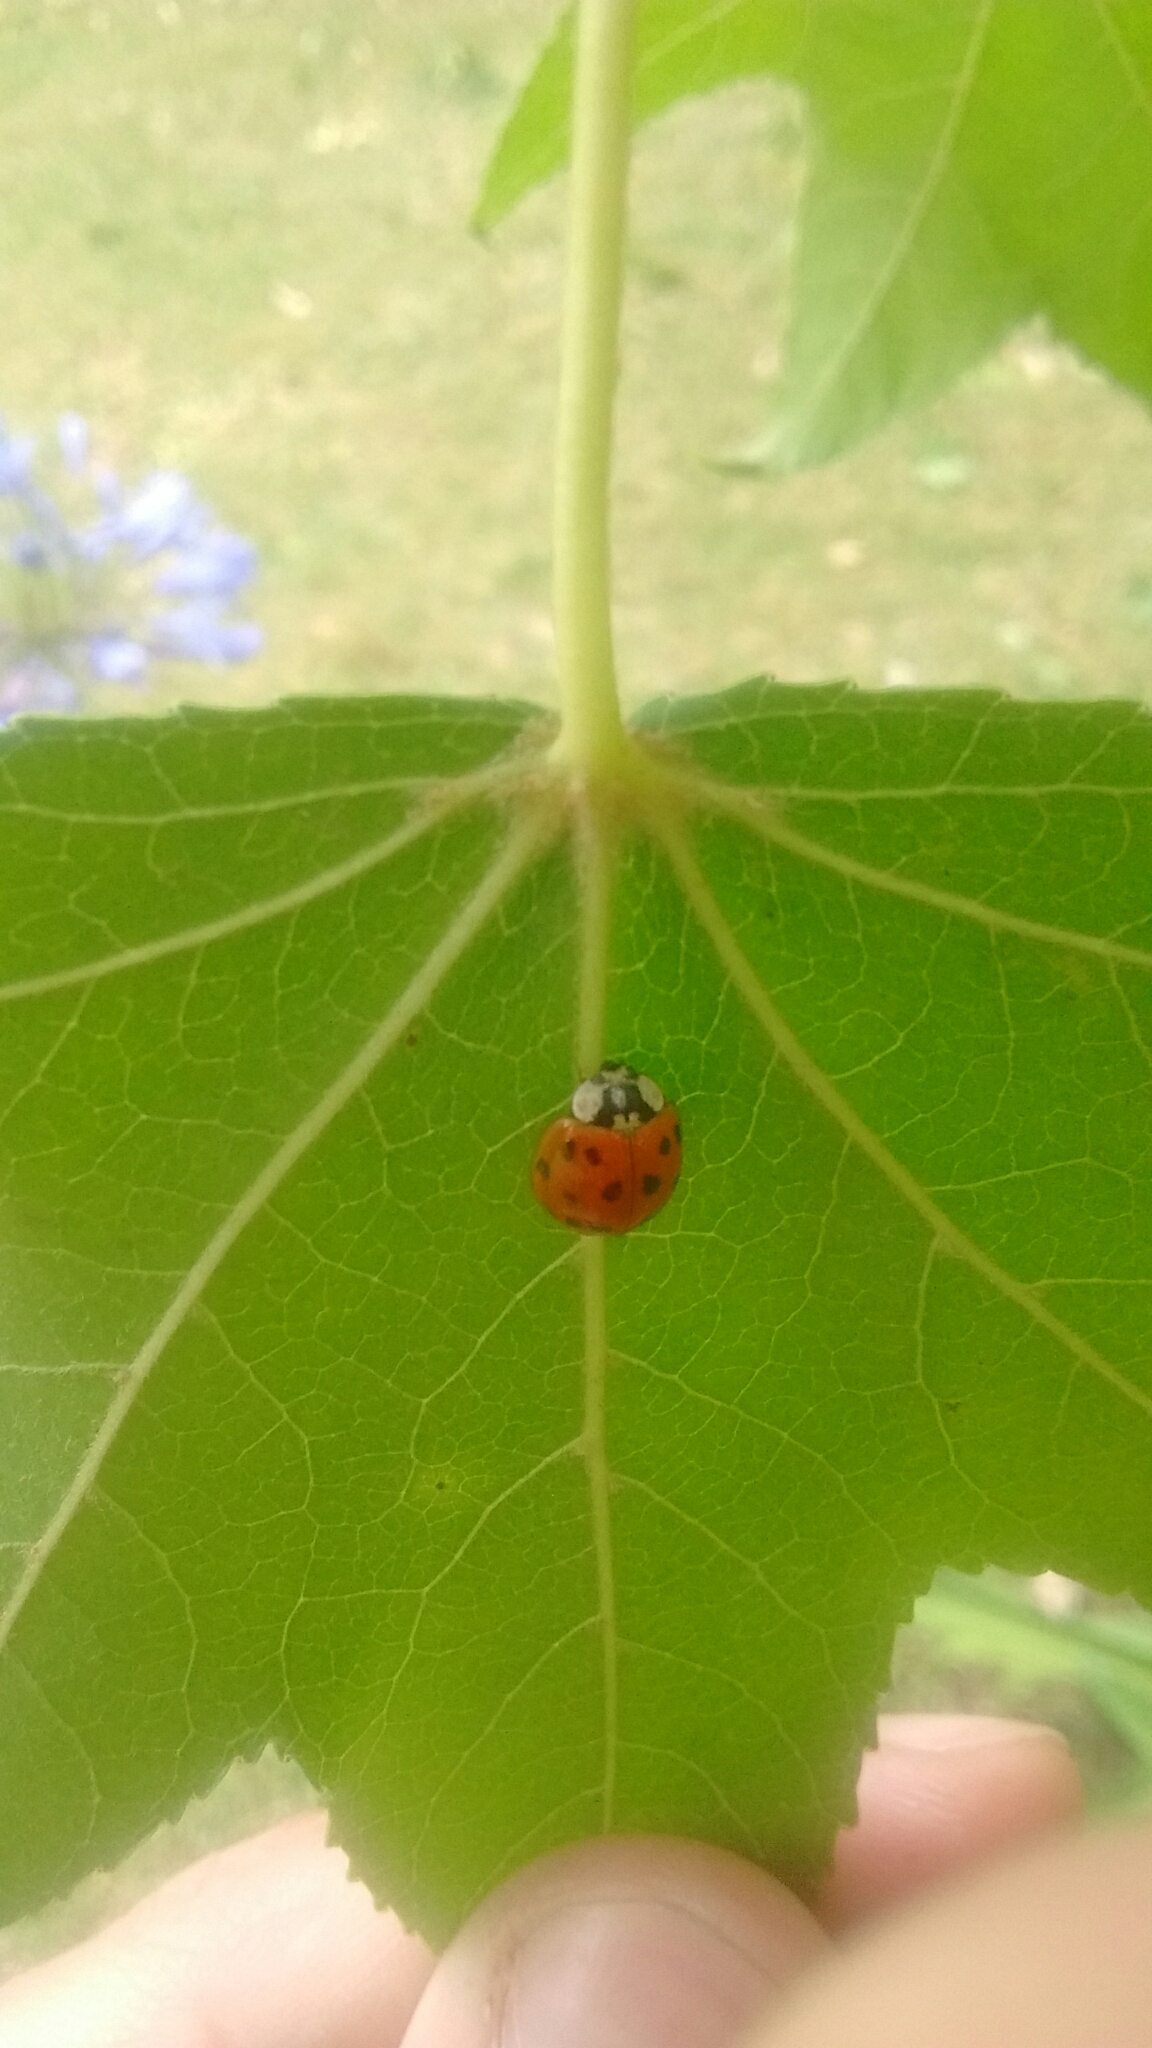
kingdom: Animalia
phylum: Arthropoda
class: Insecta
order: Coleoptera
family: Coccinellidae
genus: Harmonia
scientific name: Harmonia axyridis
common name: Harlequin ladybird
